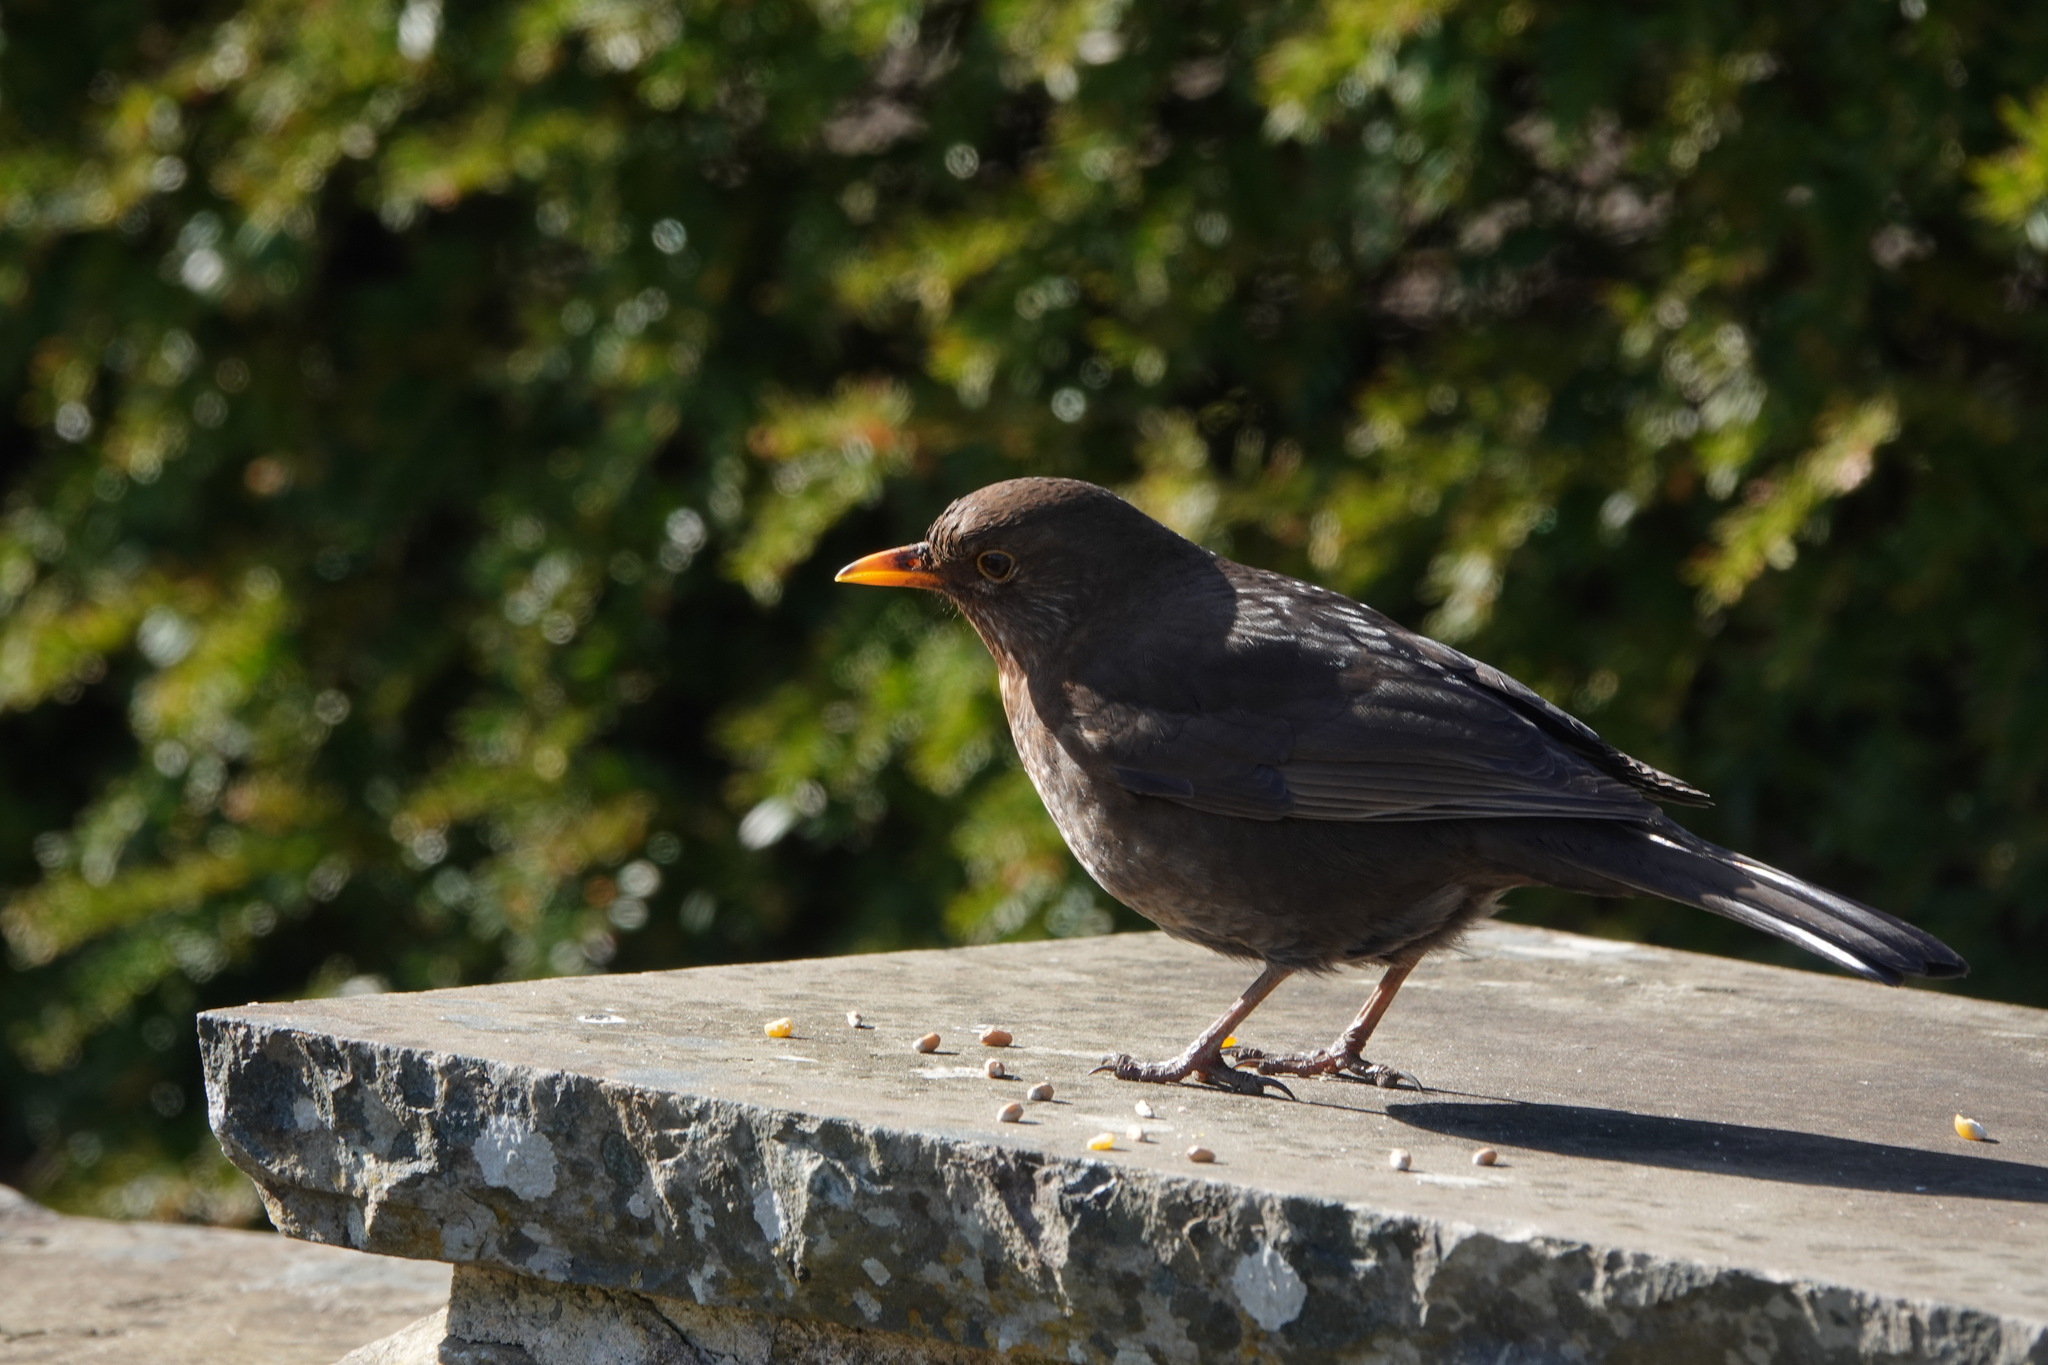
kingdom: Animalia
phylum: Chordata
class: Aves
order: Passeriformes
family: Turdidae
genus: Turdus
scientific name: Turdus merula
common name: Common blackbird
